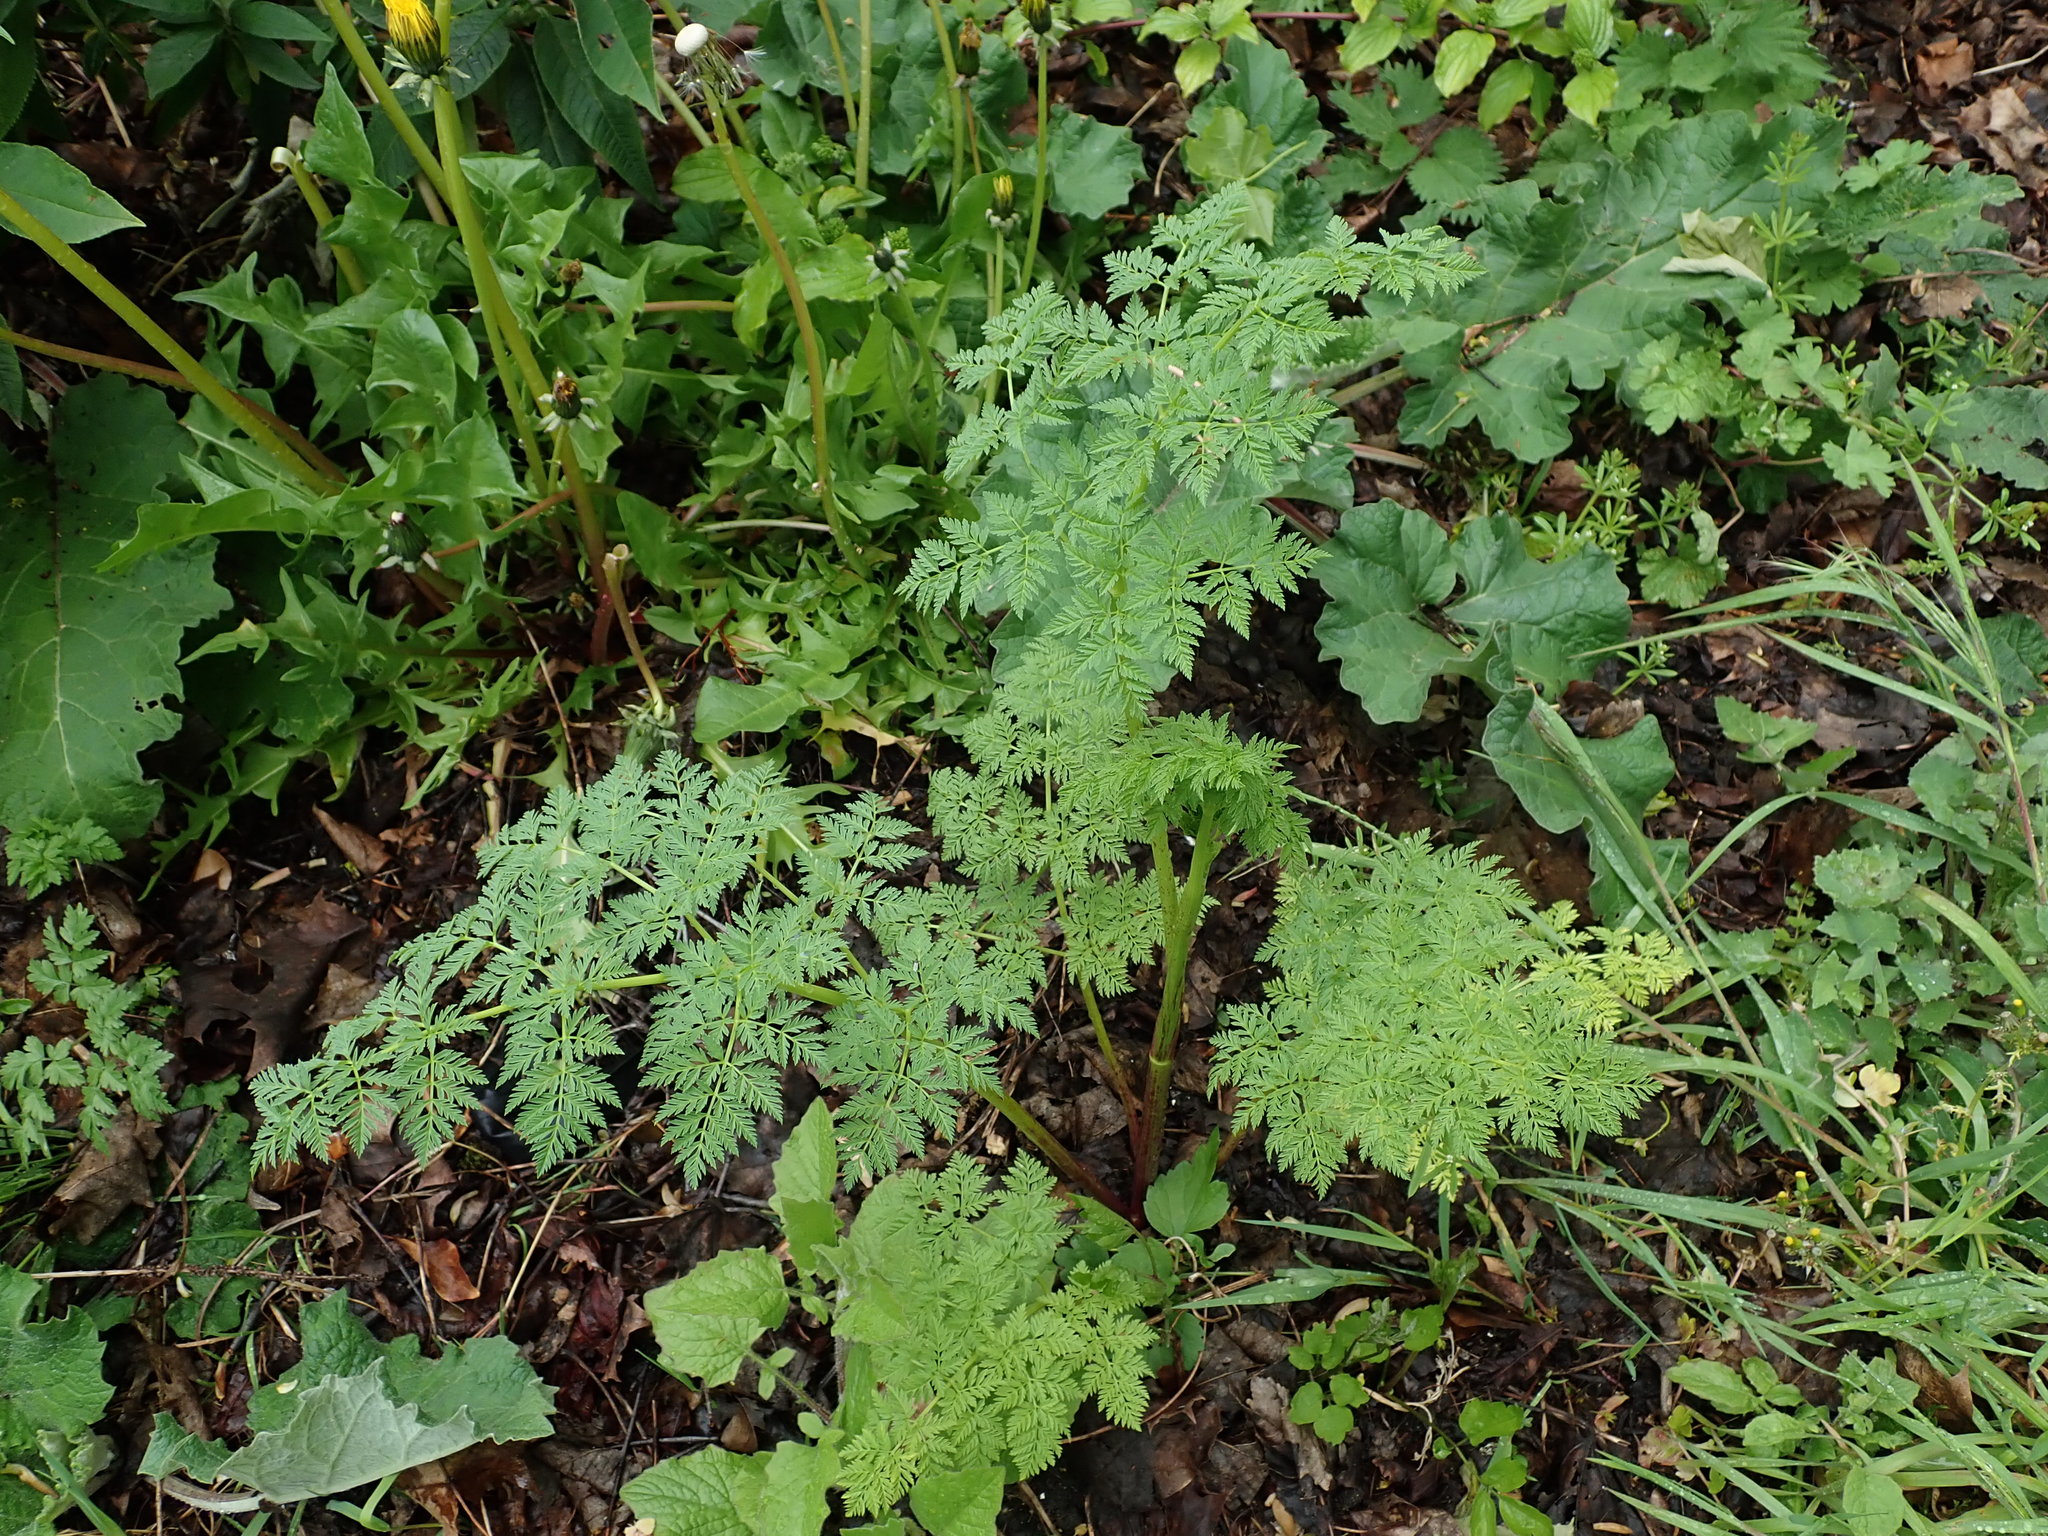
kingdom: Plantae
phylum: Tracheophyta
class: Magnoliopsida
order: Apiales
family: Apiaceae
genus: Conium
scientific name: Conium maculatum
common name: Hemlock
